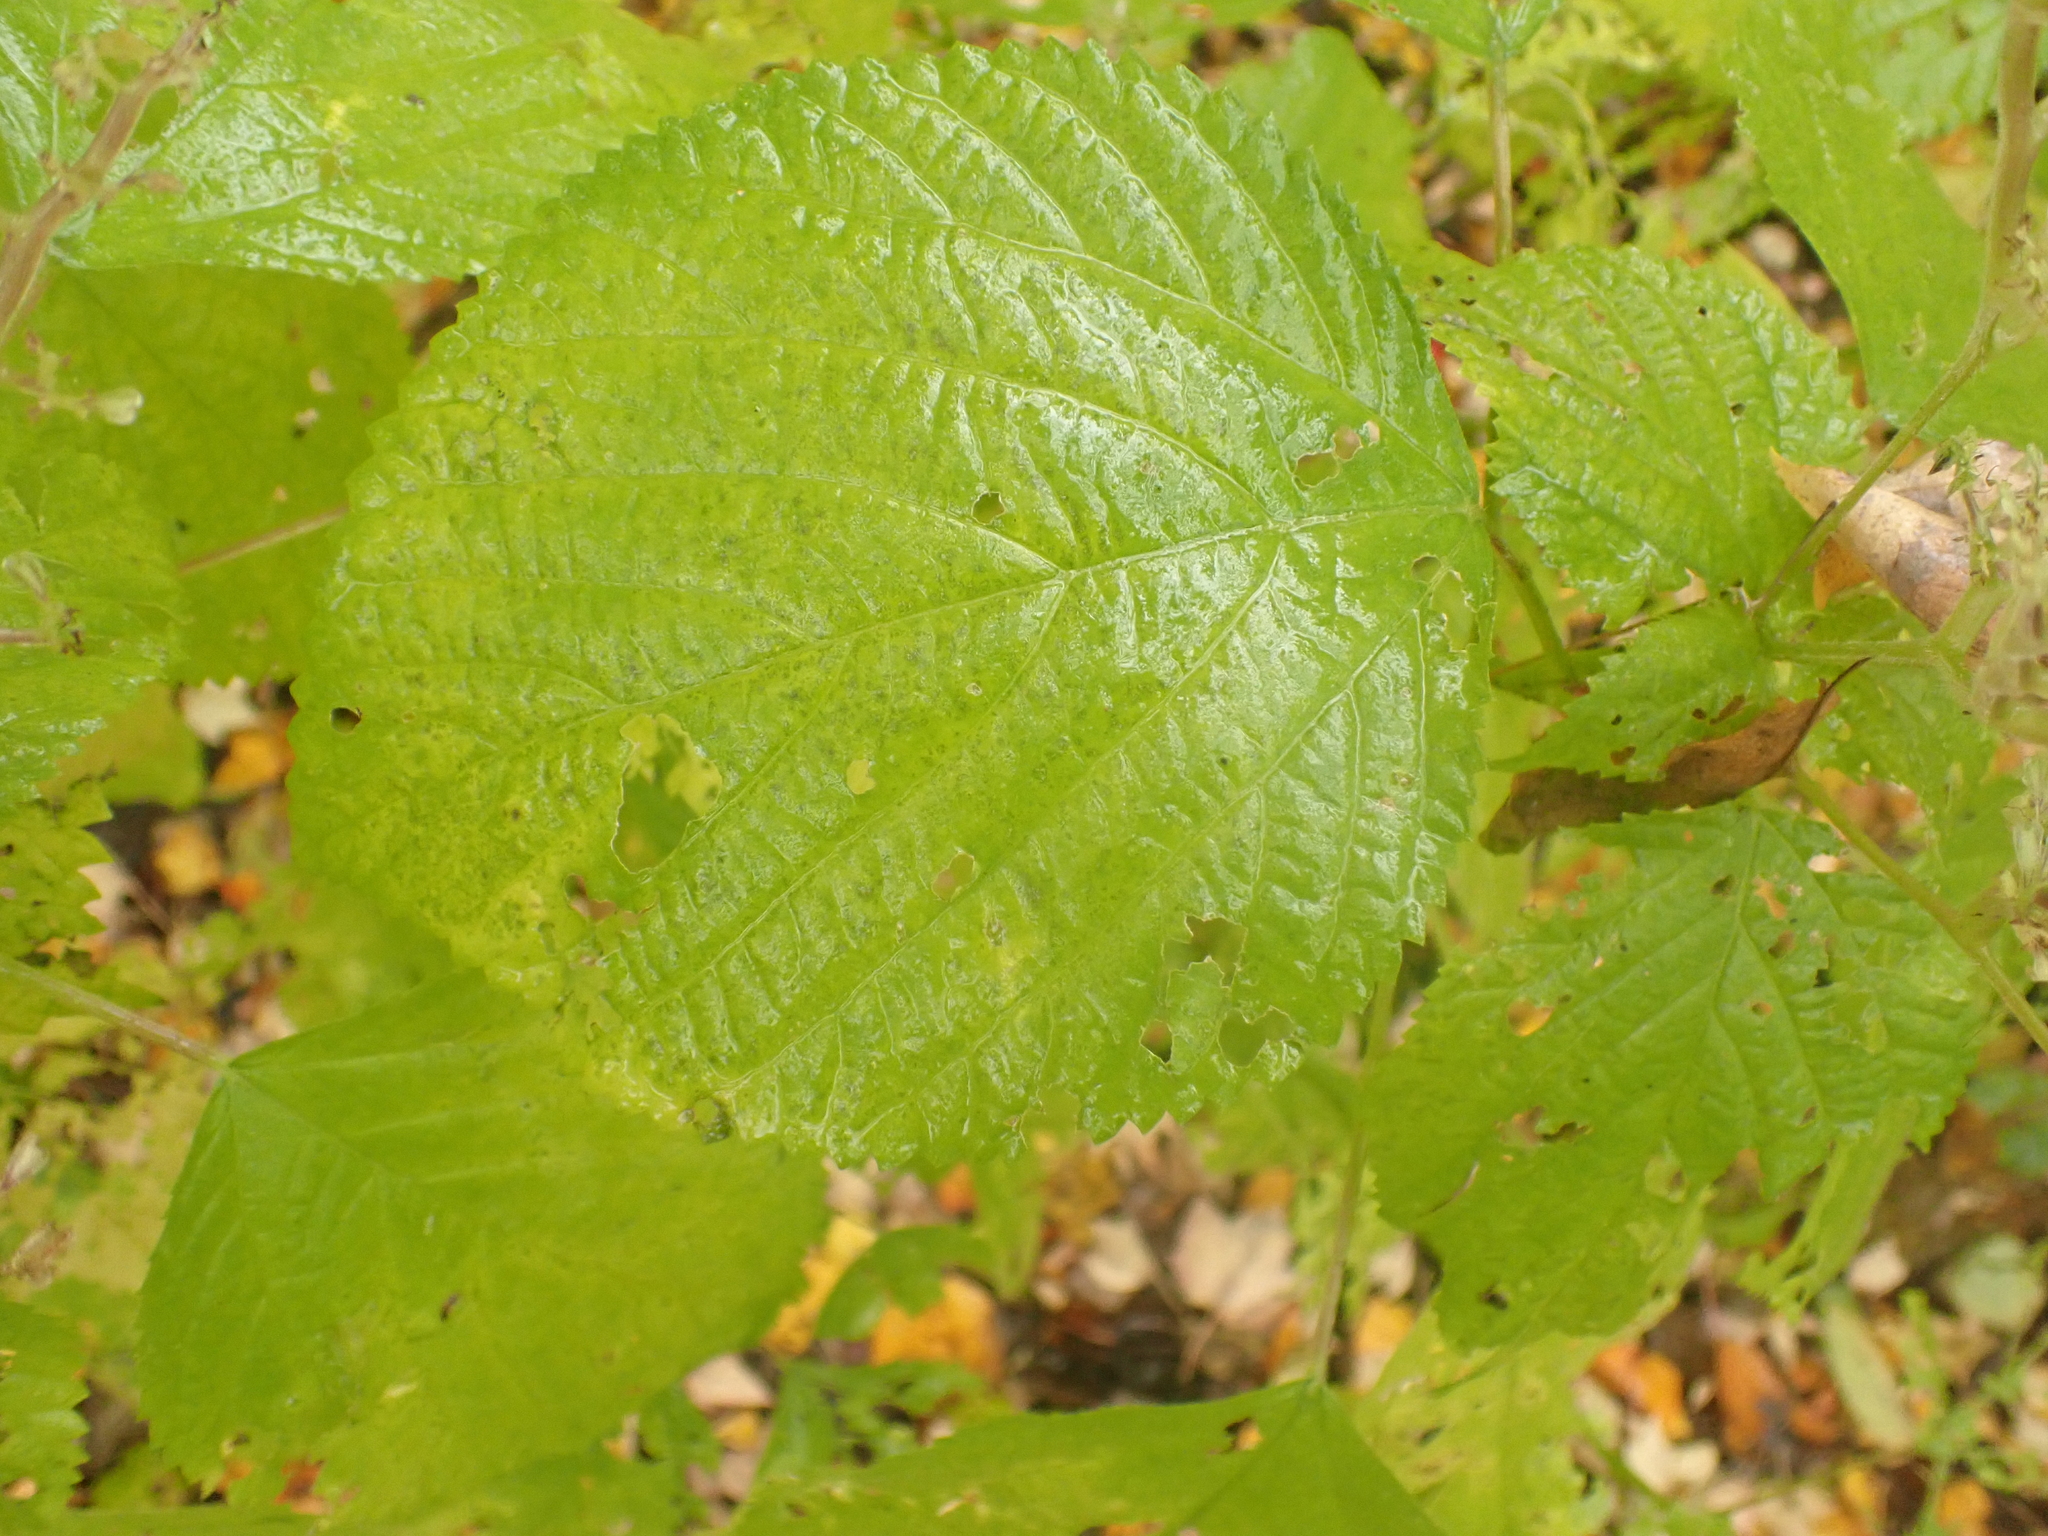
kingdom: Plantae
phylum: Tracheophyta
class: Magnoliopsida
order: Rosales
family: Urticaceae
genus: Laportea
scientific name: Laportea canadensis
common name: Canada nettle
